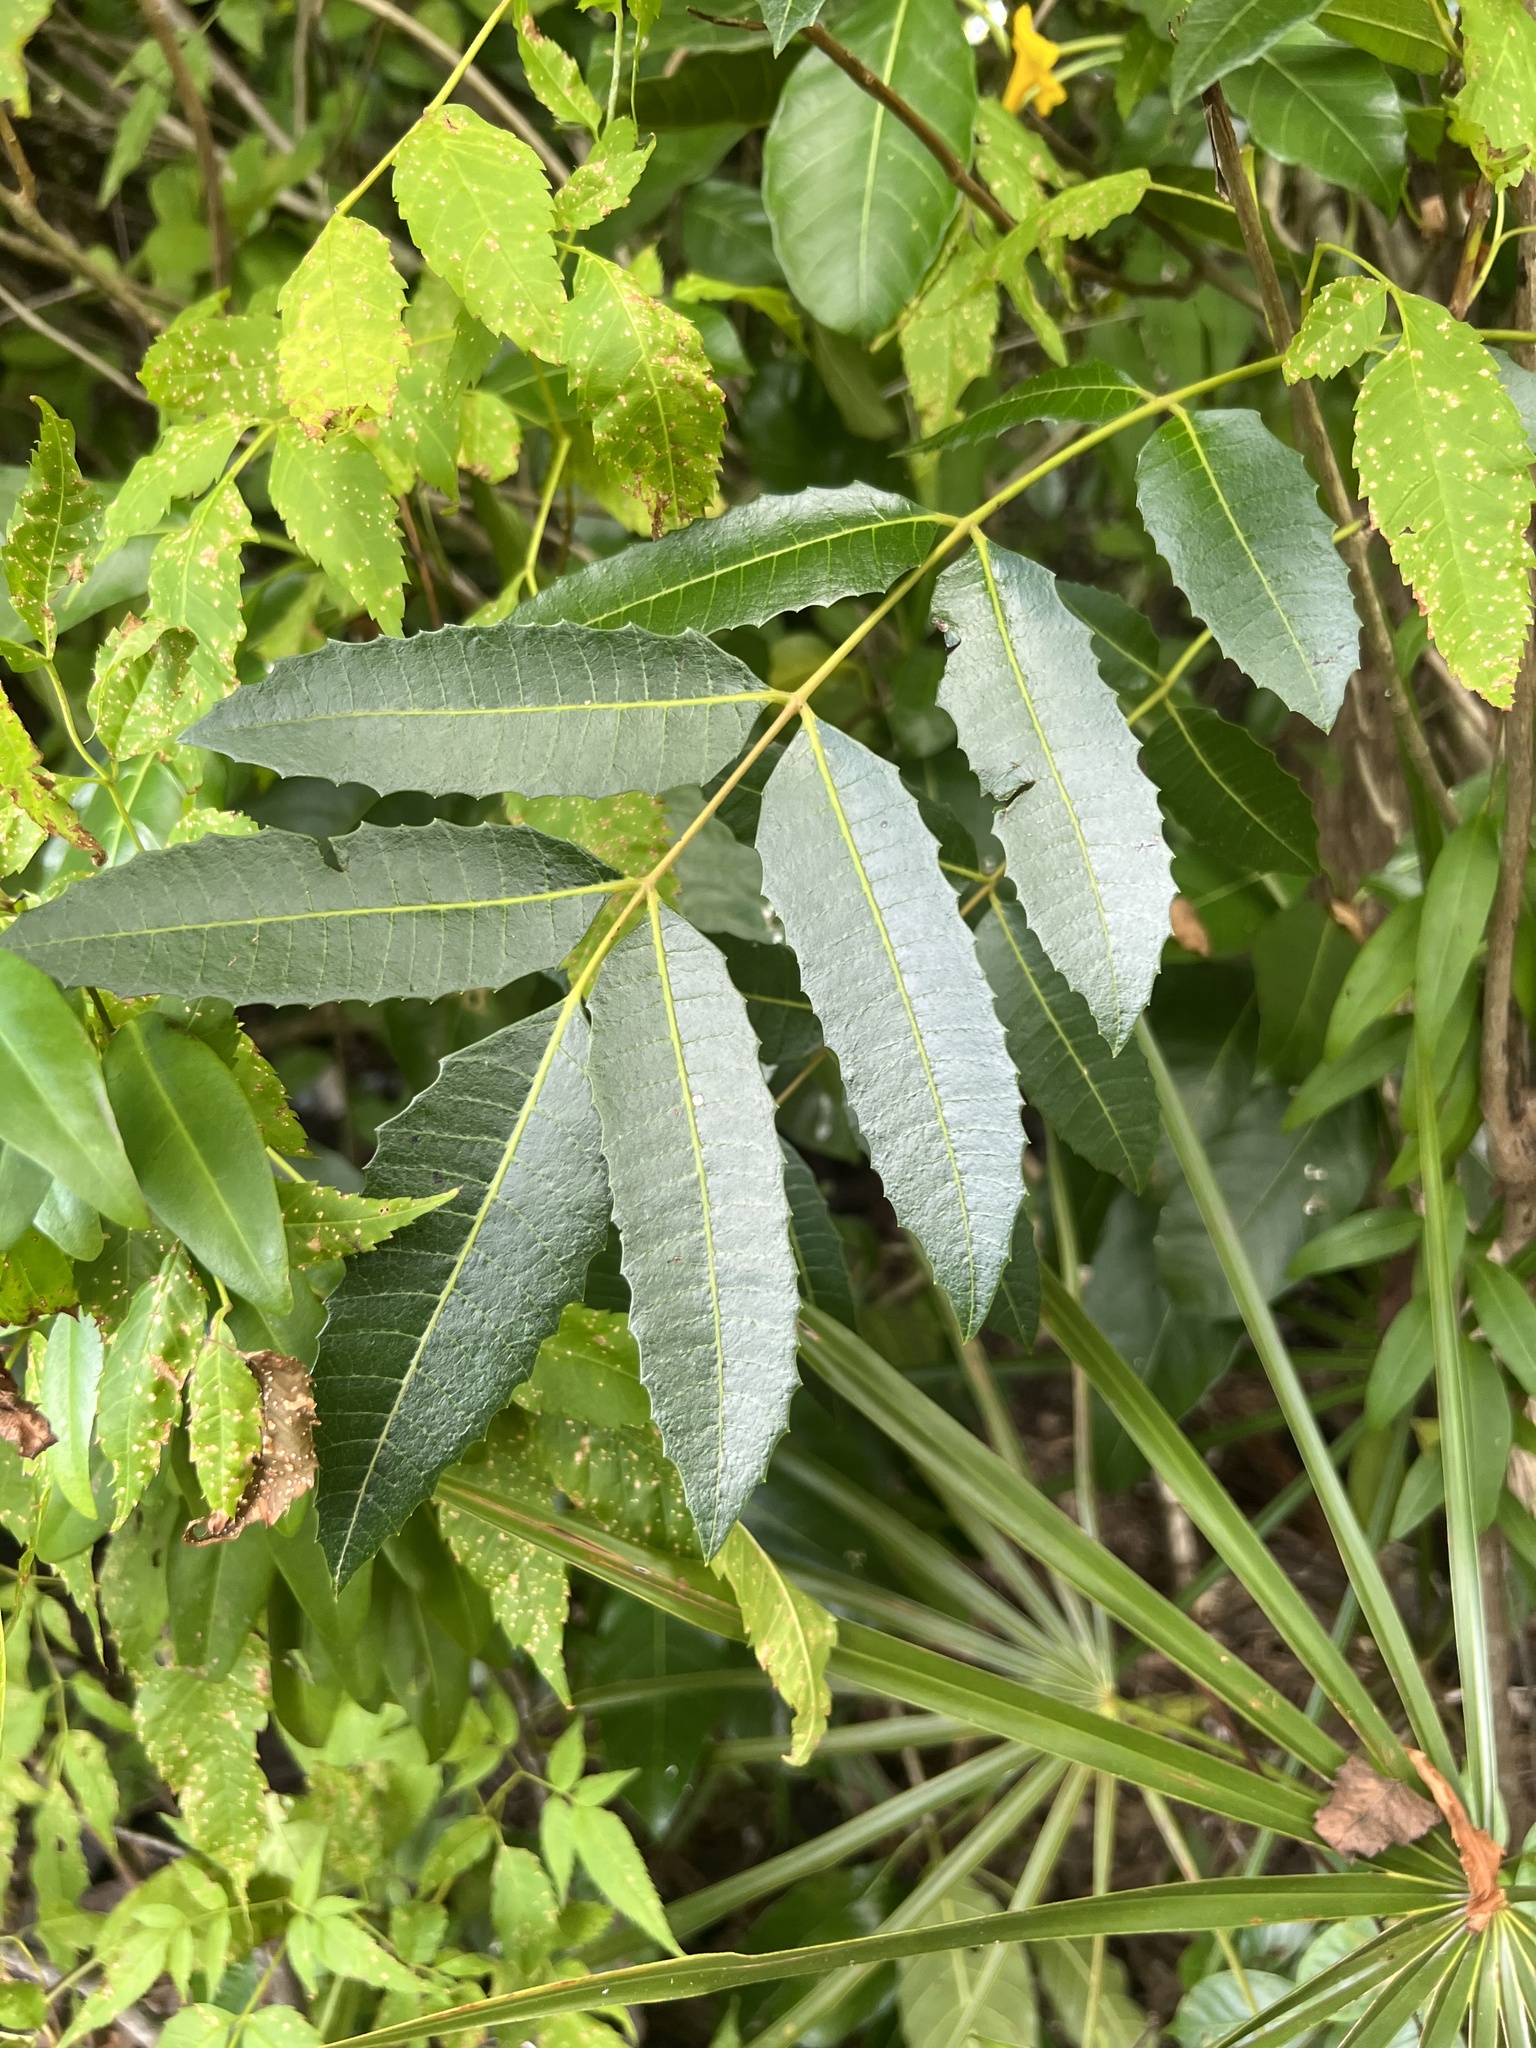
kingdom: Plantae
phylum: Tracheophyta
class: Magnoliopsida
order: Sapindales
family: Anacardiaceae
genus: Comocladia
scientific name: Comocladia dentata
